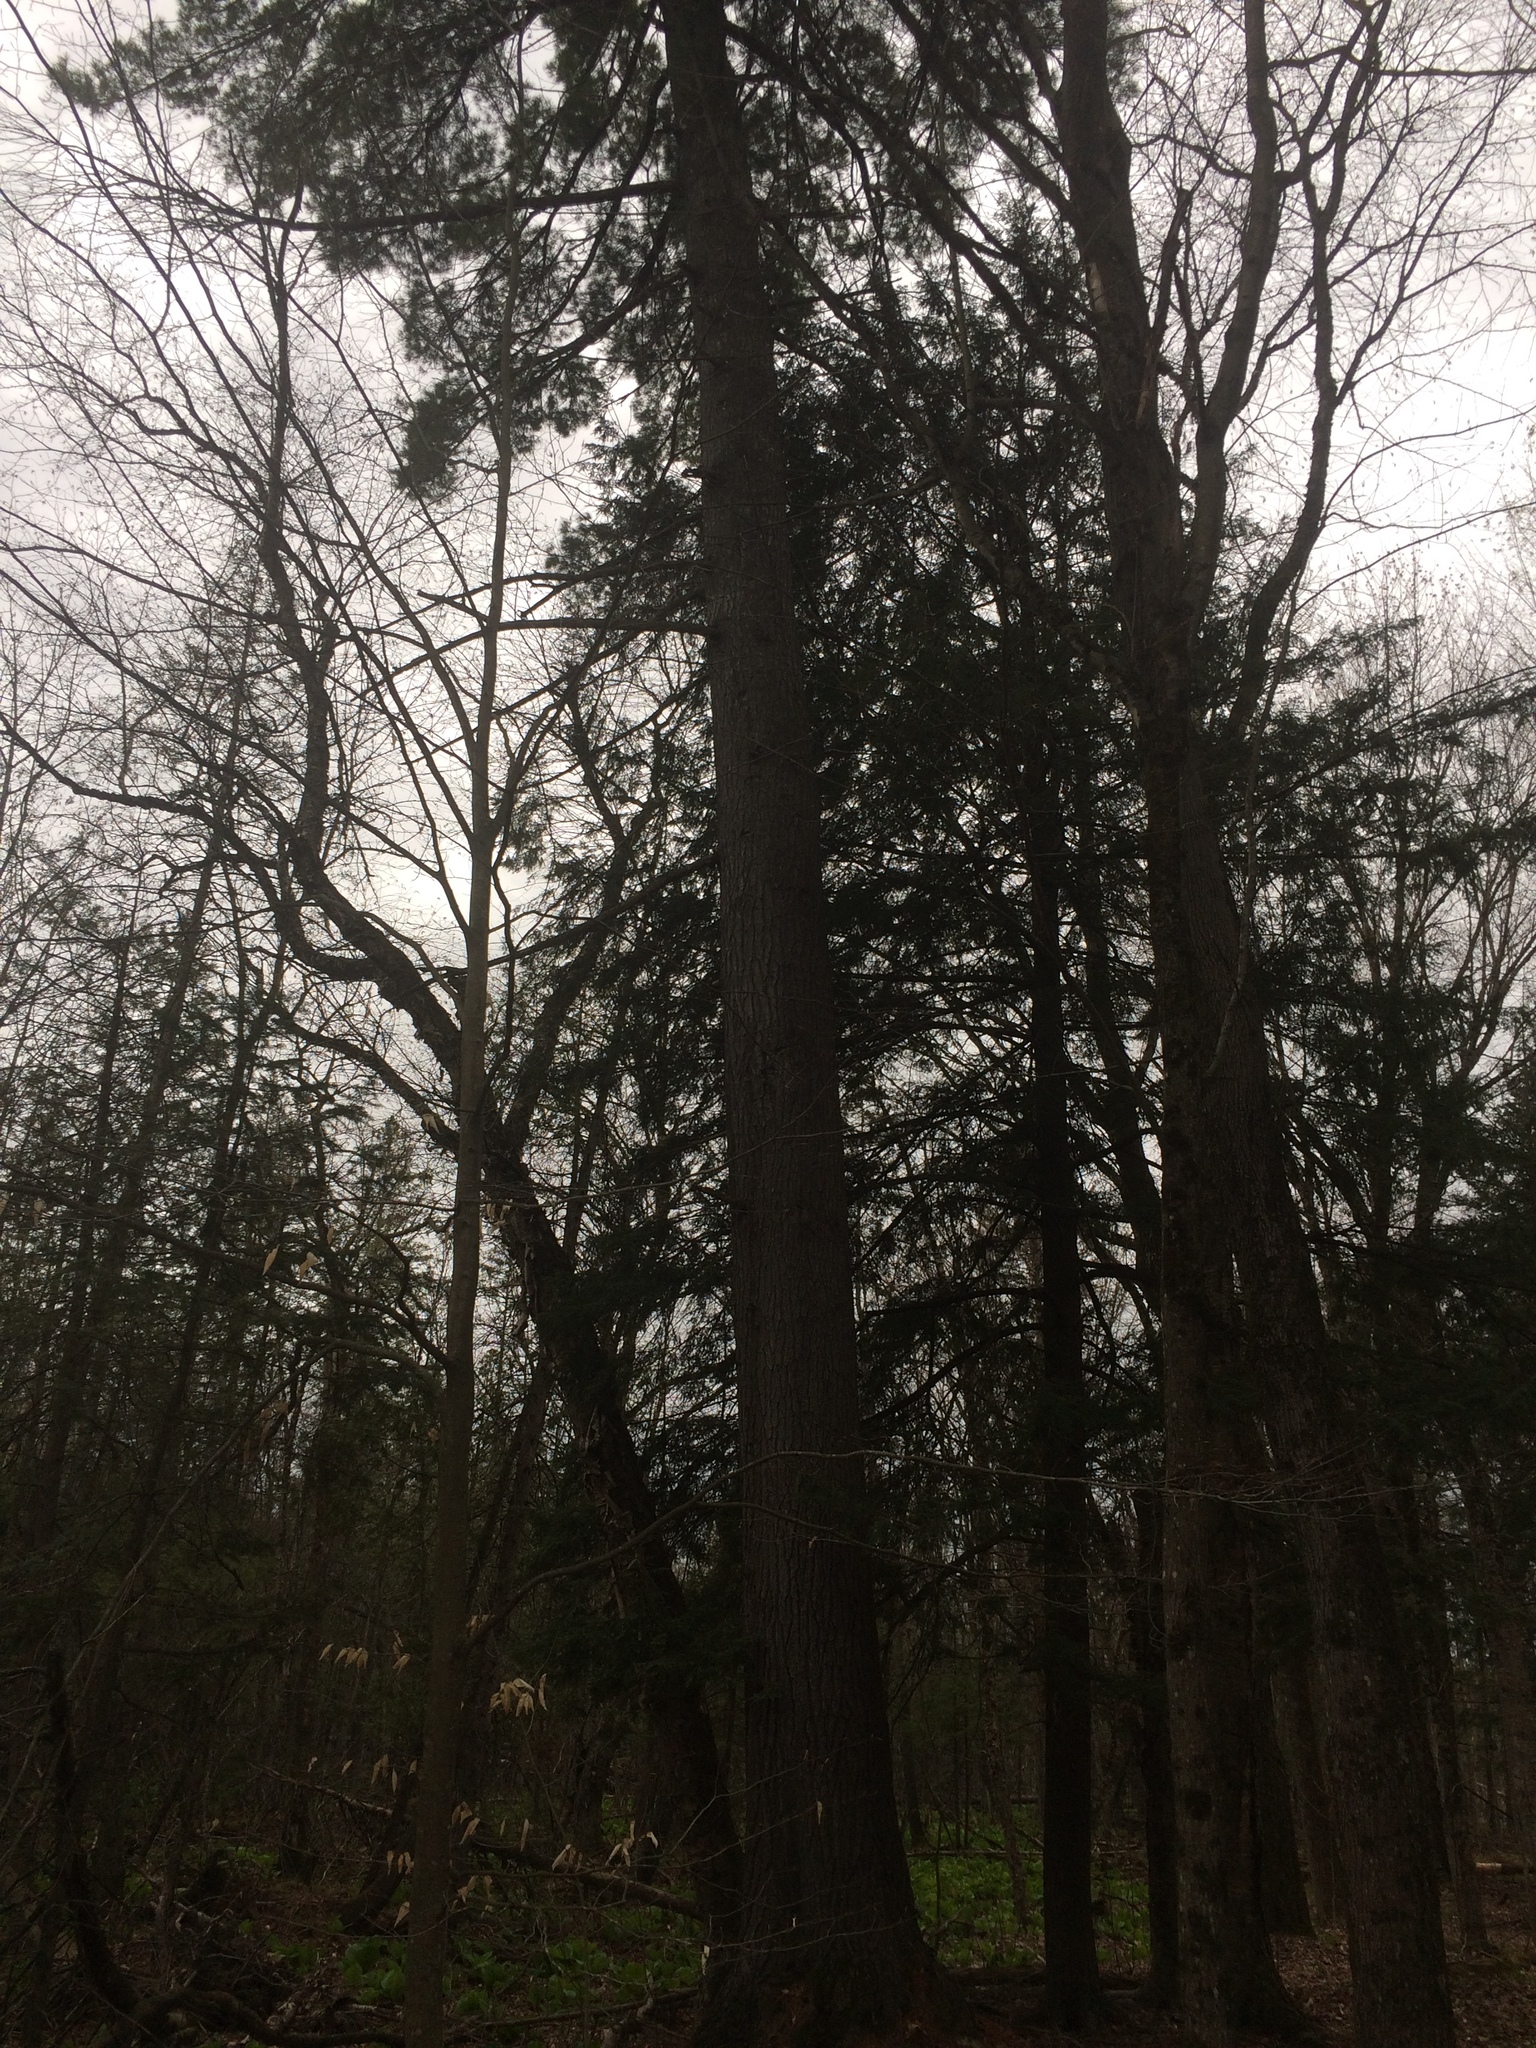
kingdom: Plantae
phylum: Tracheophyta
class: Pinopsida
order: Pinales
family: Pinaceae
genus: Pinus
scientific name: Pinus strobus
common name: Weymouth pine
